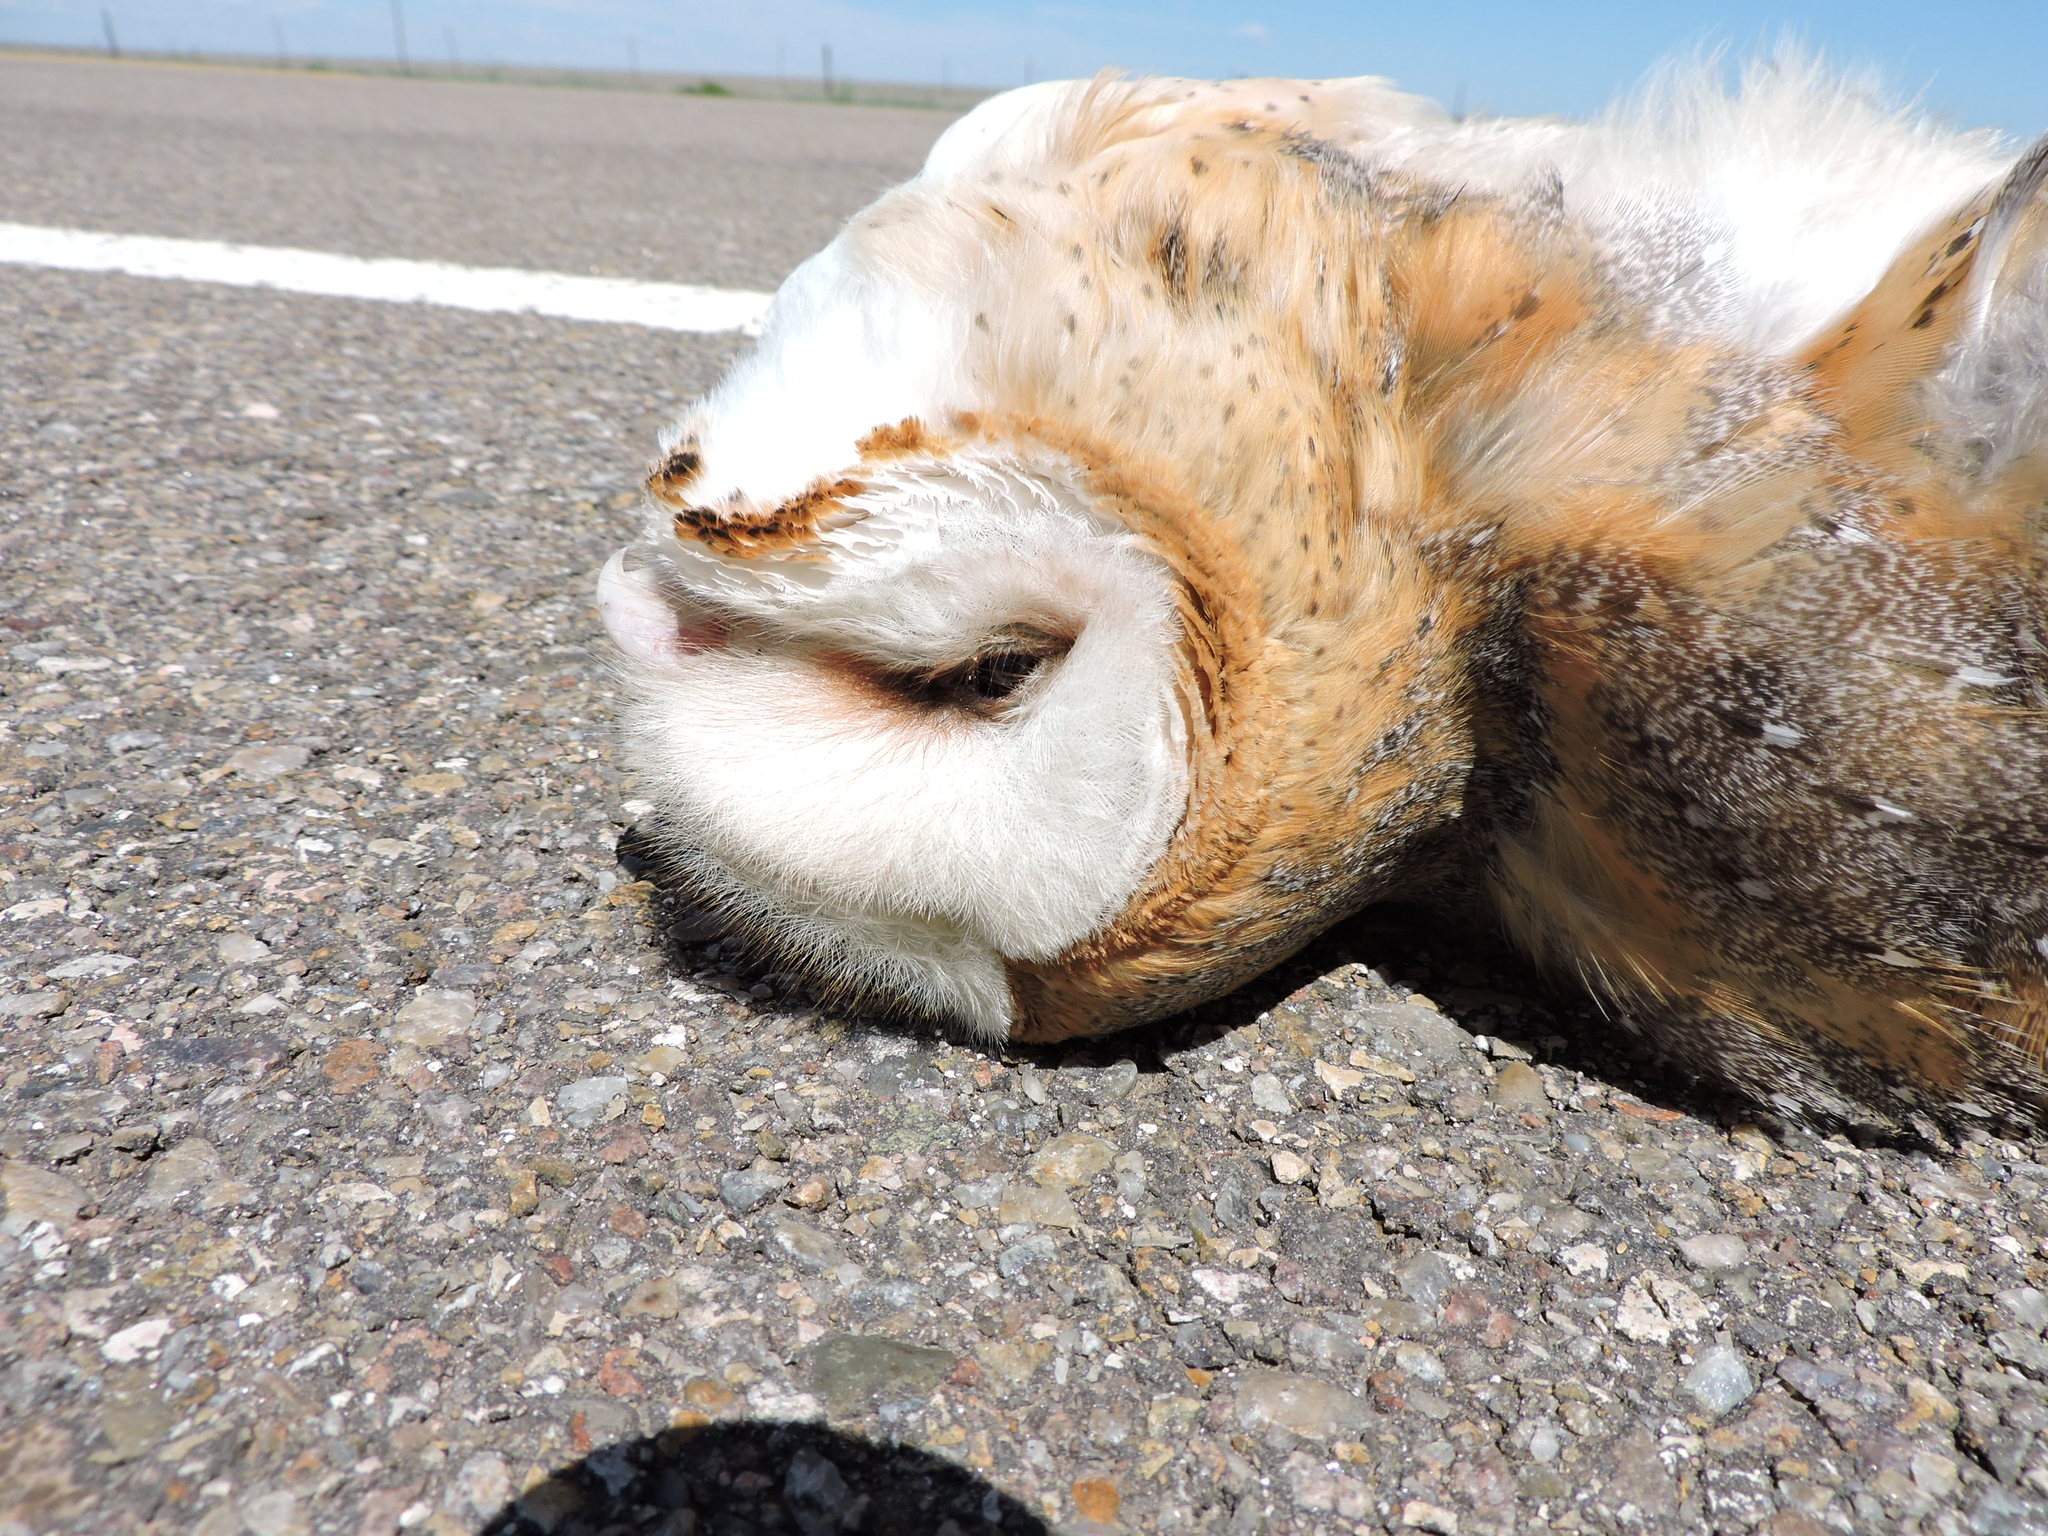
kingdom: Animalia
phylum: Chordata
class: Aves
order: Strigiformes
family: Tytonidae
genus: Tyto
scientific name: Tyto alba
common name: Barn owl
